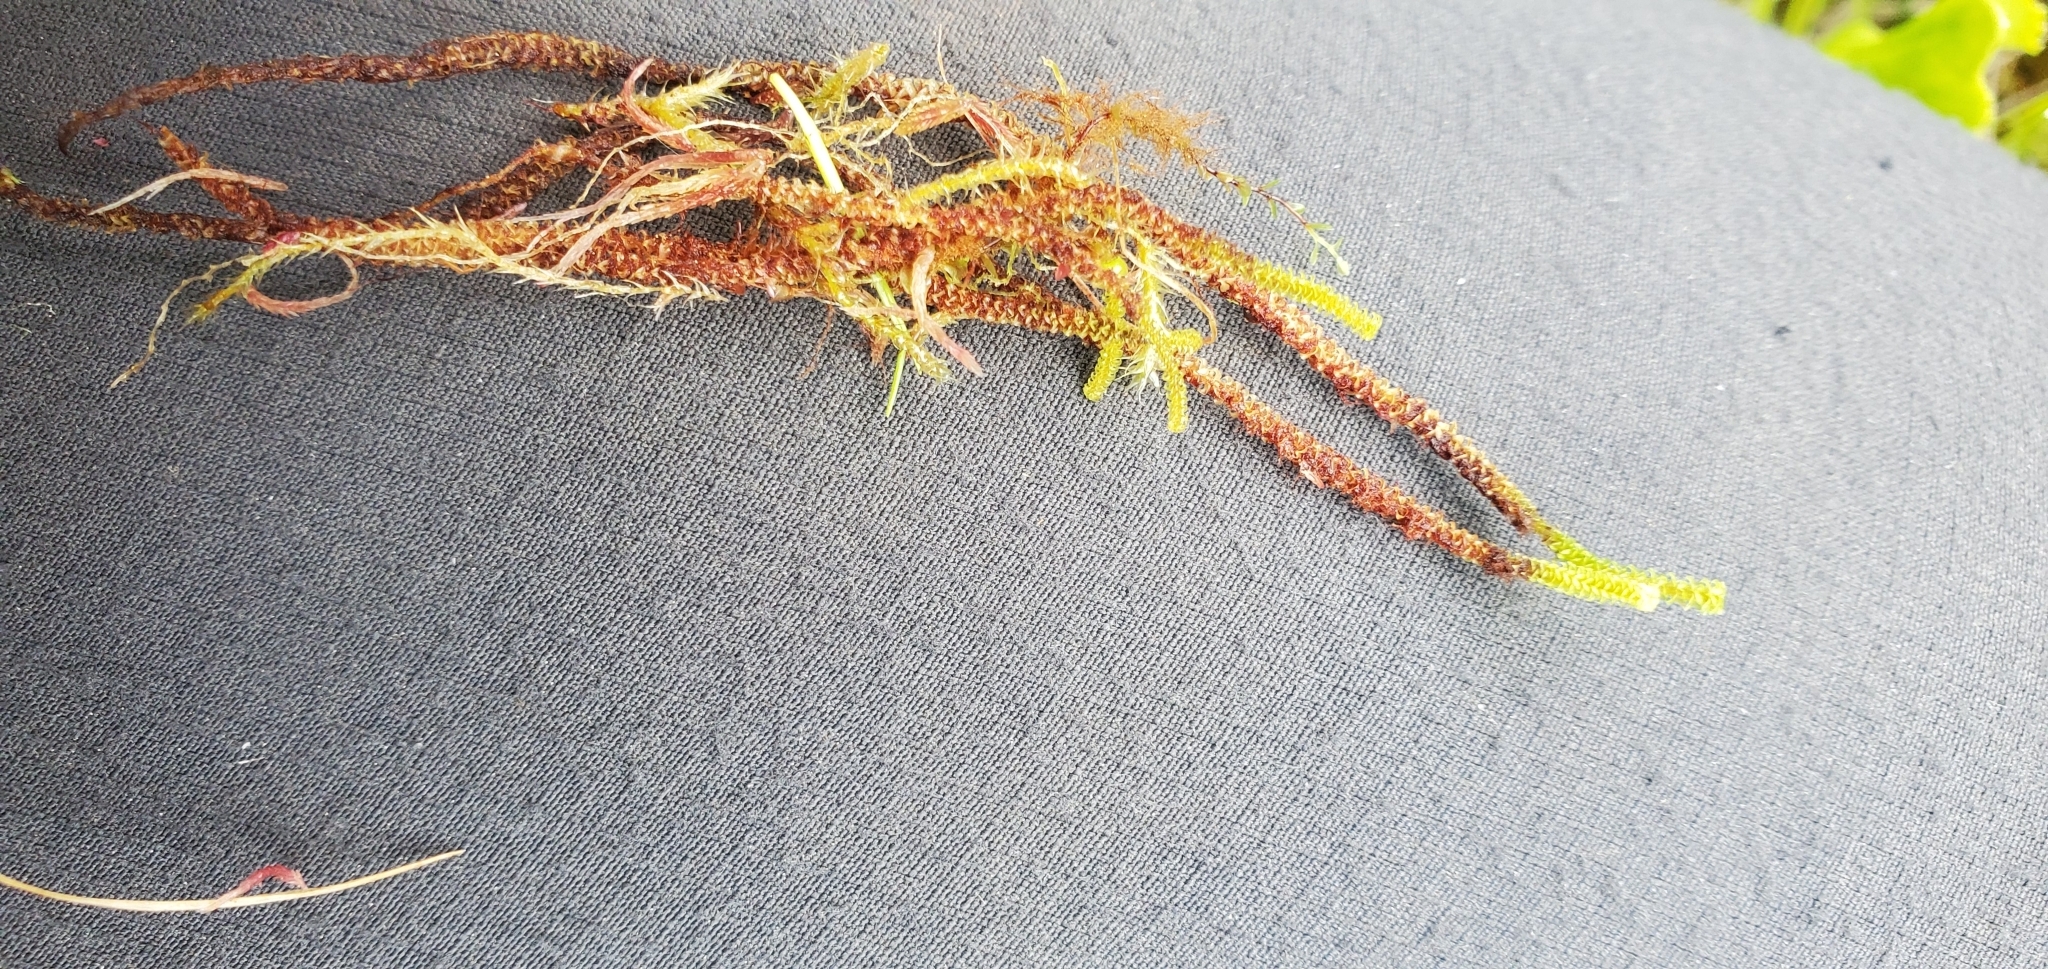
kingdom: Plantae
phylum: Bryophyta
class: Bryopsida
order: Splachnales
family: Meesiaceae
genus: Paludella
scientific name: Paludella squarrosa
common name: Tufted fen moss
